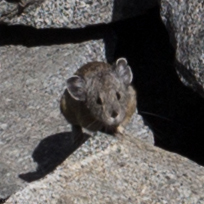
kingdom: Animalia
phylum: Chordata
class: Mammalia
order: Lagomorpha
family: Ochotonidae
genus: Ochotona
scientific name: Ochotona princeps
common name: American pika
